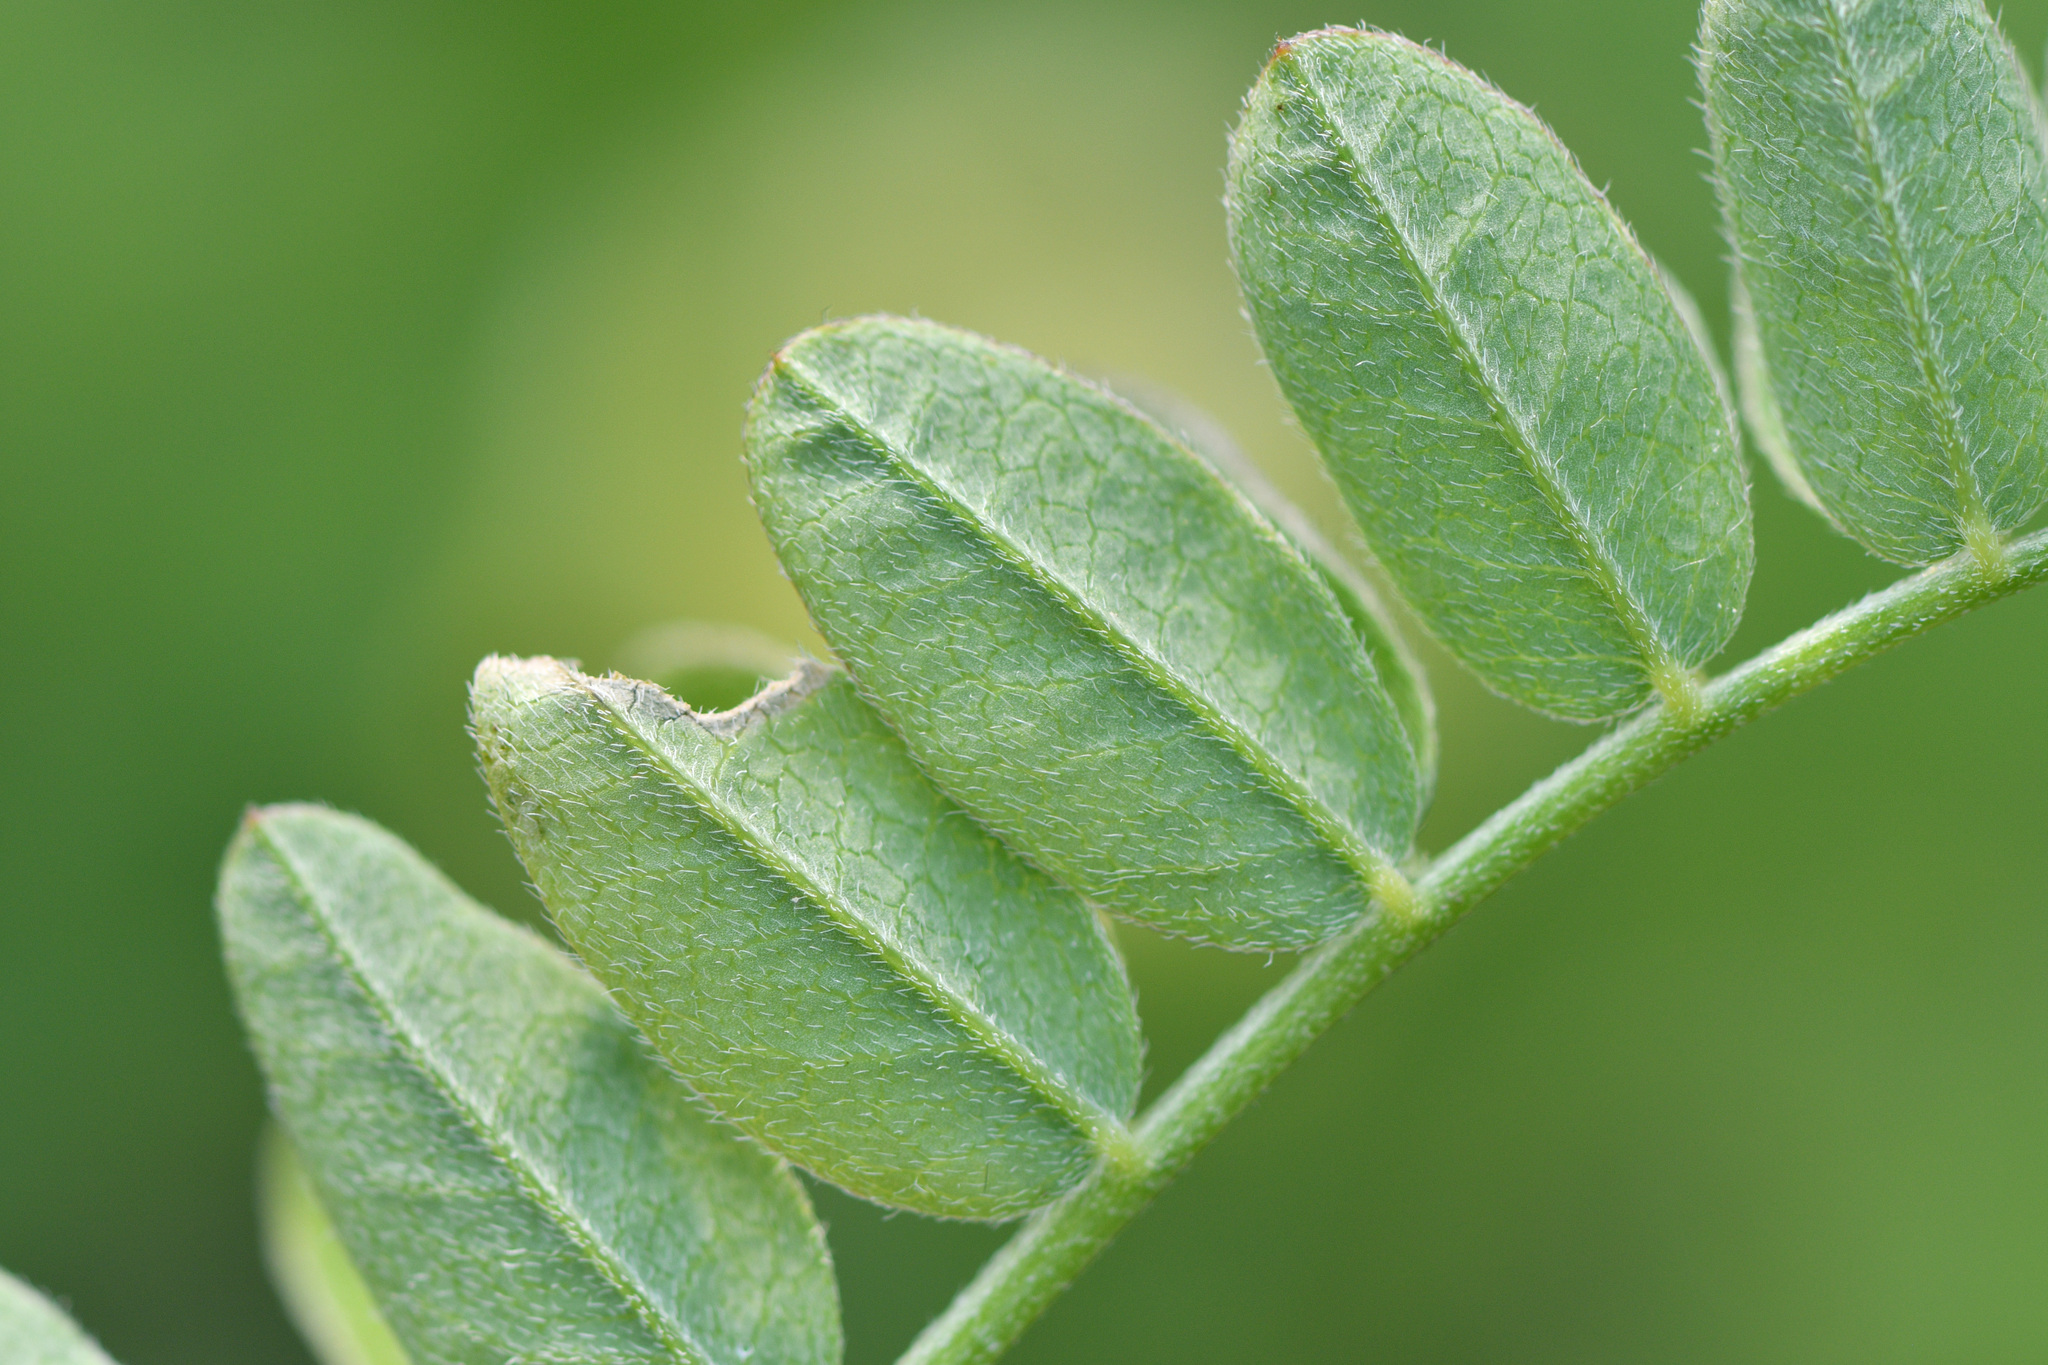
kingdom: Plantae
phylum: Tracheophyta
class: Magnoliopsida
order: Fabales
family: Fabaceae
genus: Astragalus
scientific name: Astragalus cicer
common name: Chick-pea milk-vetch
